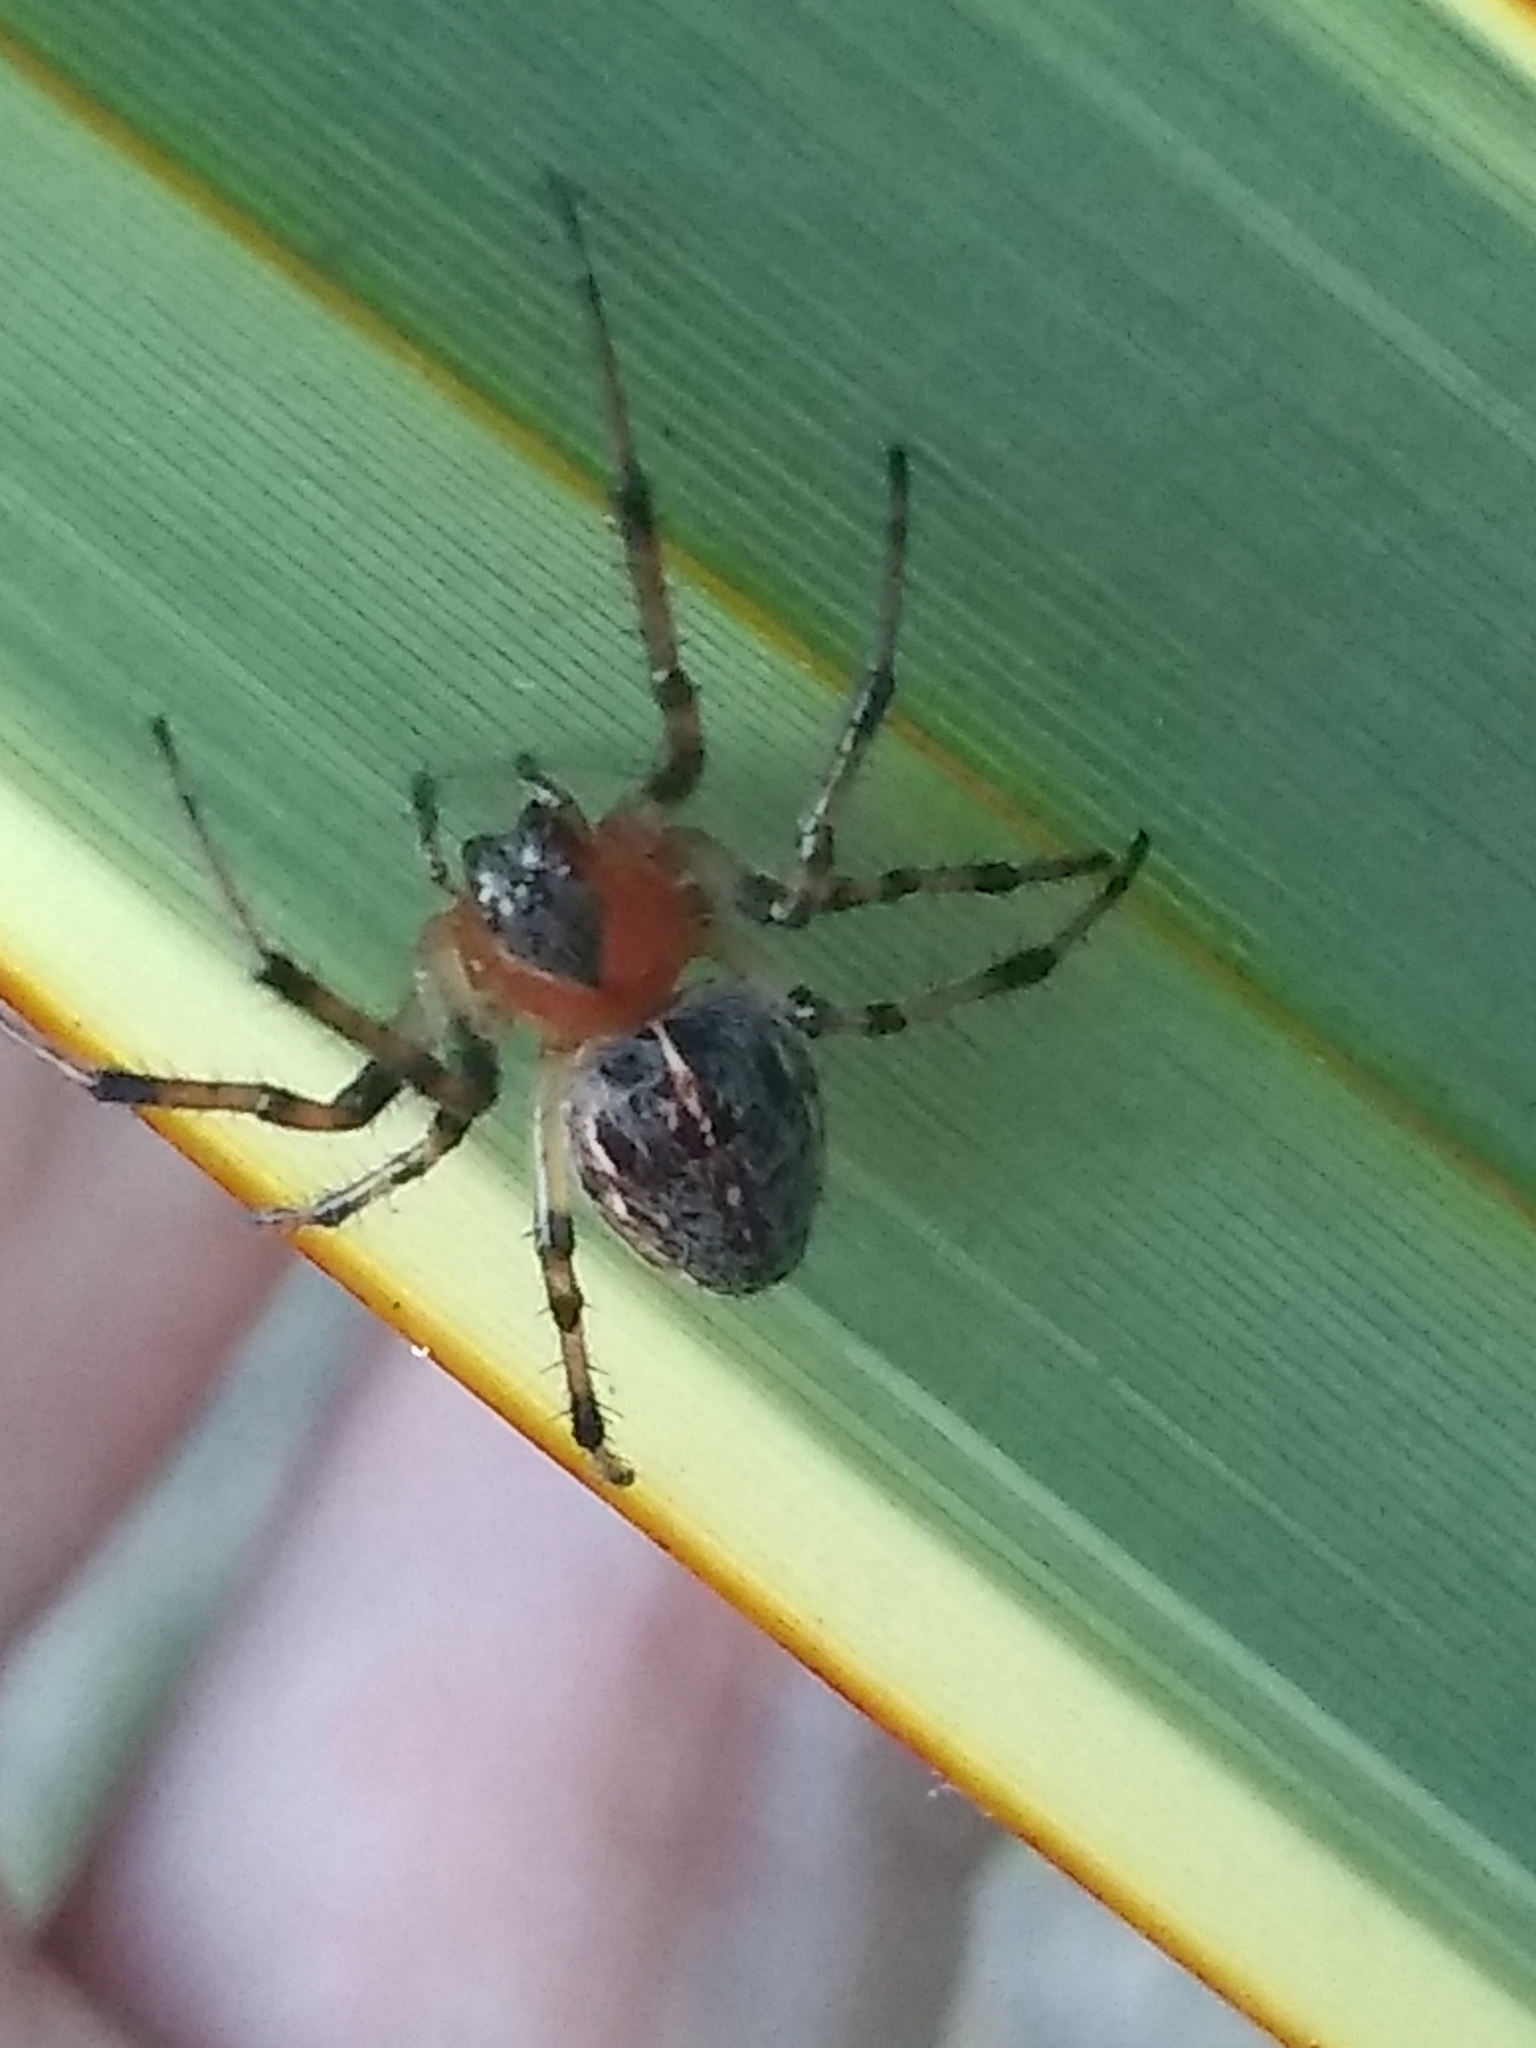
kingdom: Animalia
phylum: Arthropoda
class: Arachnida
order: Araneae
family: Araneidae
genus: Alpaida
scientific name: Alpaida veniliae
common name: Orb weavers
